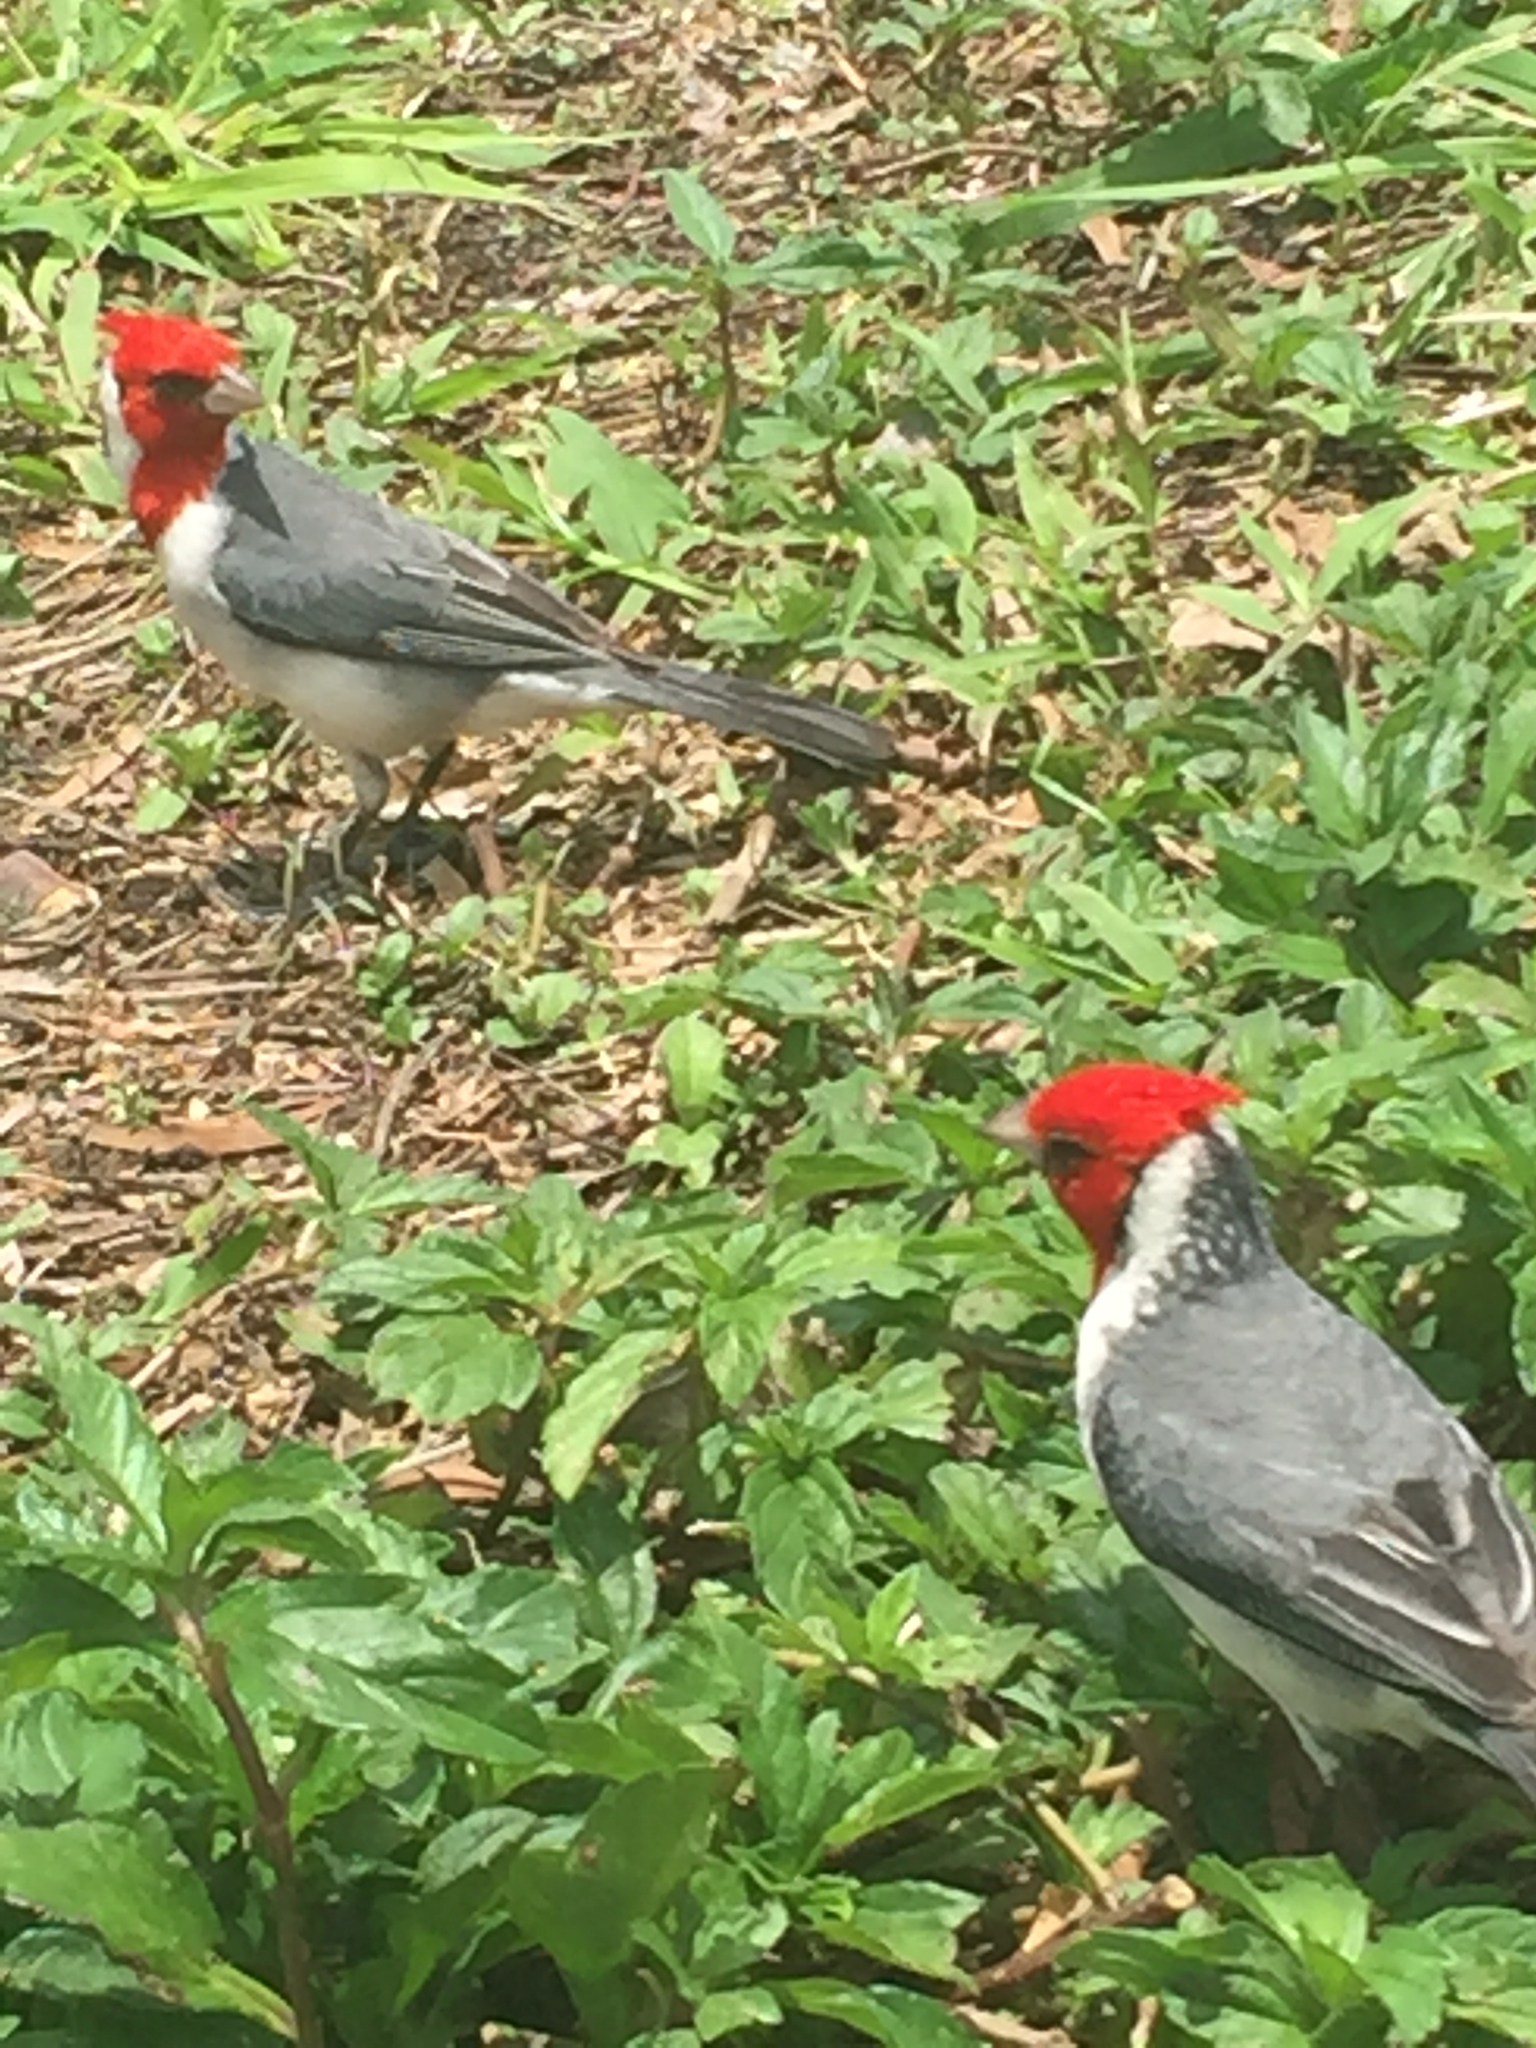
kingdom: Animalia
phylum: Chordata
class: Aves
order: Passeriformes
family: Thraupidae
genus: Paroaria
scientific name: Paroaria coronata
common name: Red-crested cardinal
